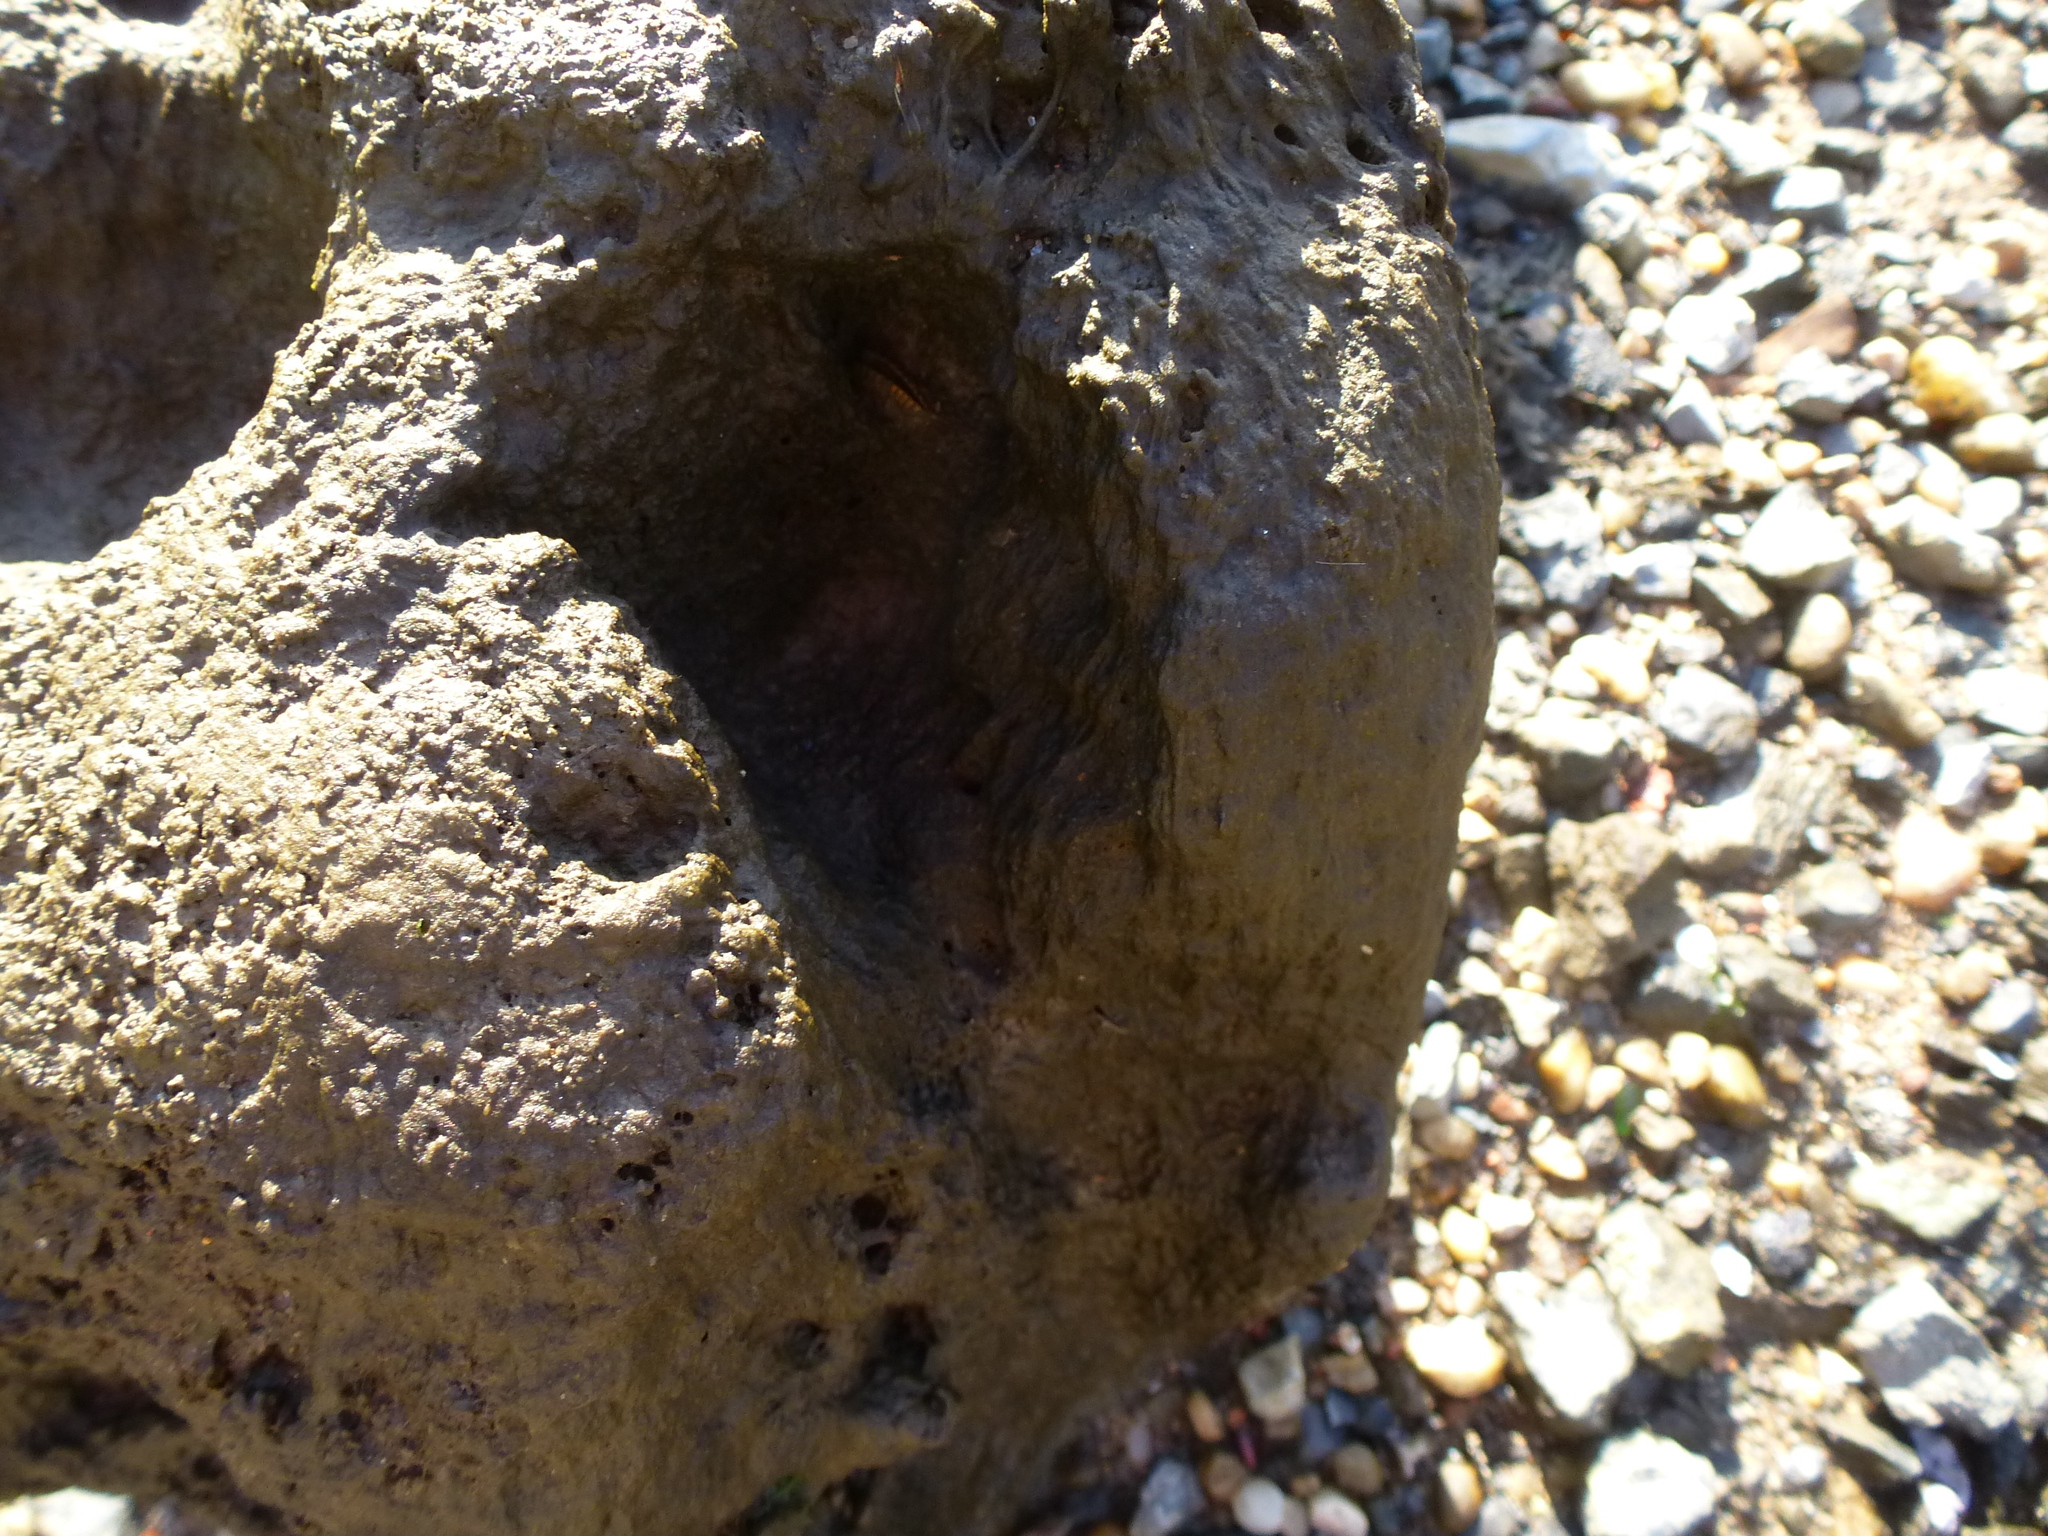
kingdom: Animalia
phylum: Mollusca
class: Bivalvia
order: Mytilida
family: Mytilidae
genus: Geukensia
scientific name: Geukensia demissa
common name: Ribbed mussel
